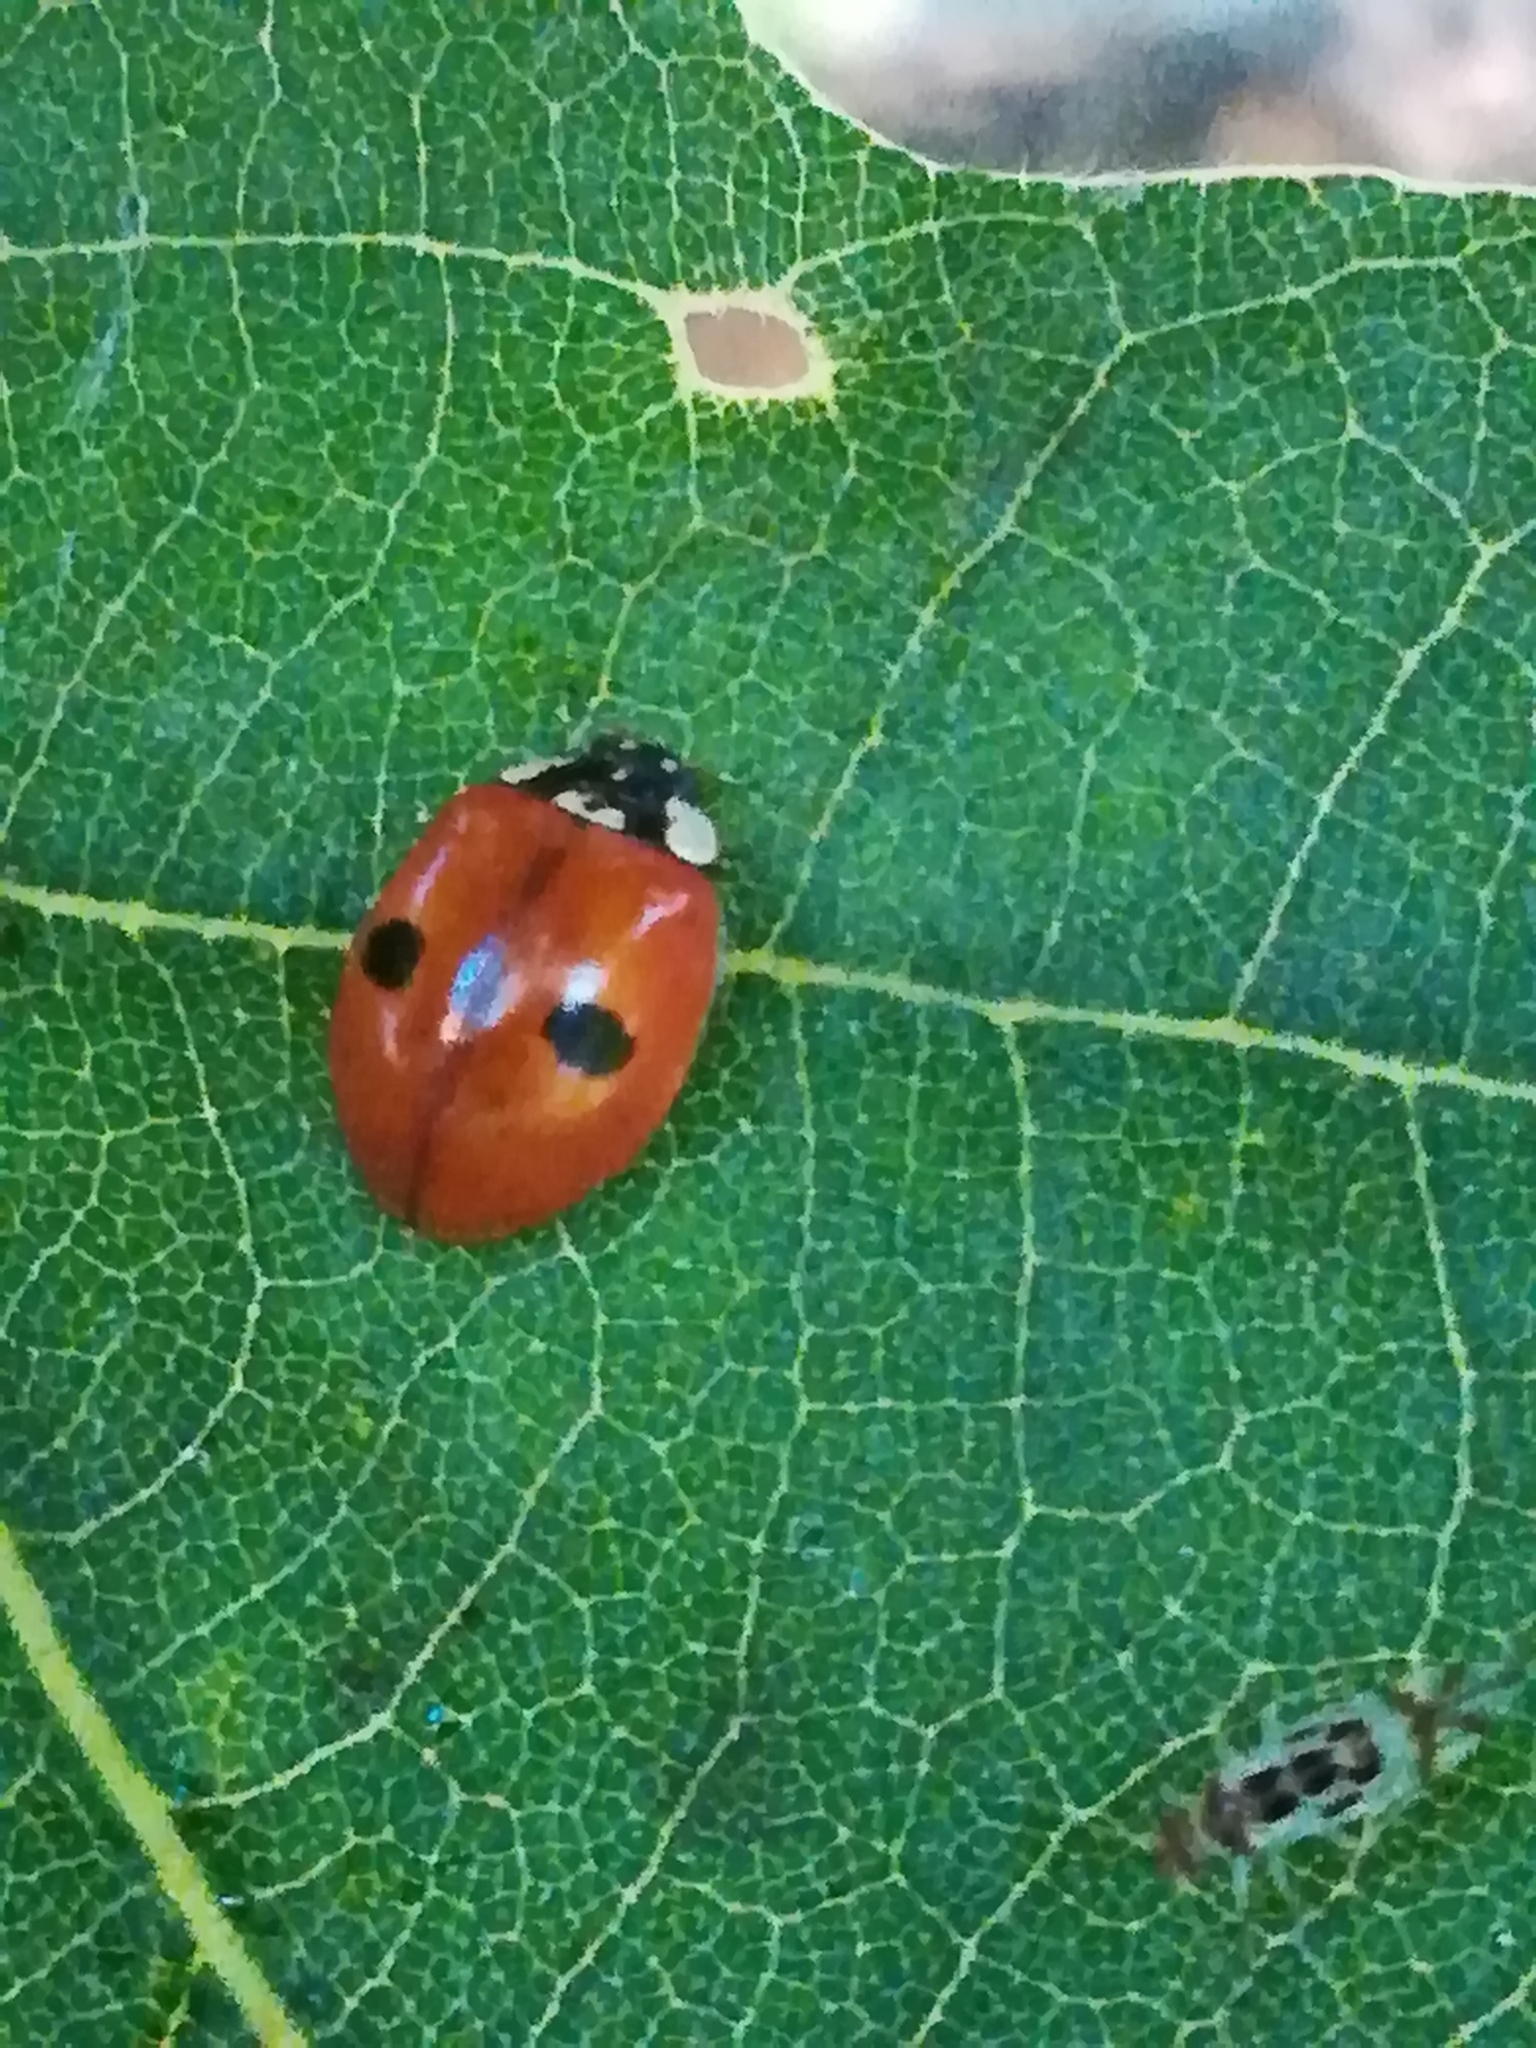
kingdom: Animalia
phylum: Arthropoda
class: Insecta
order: Coleoptera
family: Coccinellidae
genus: Adalia
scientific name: Adalia bipunctata
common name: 2-spot ladybird
